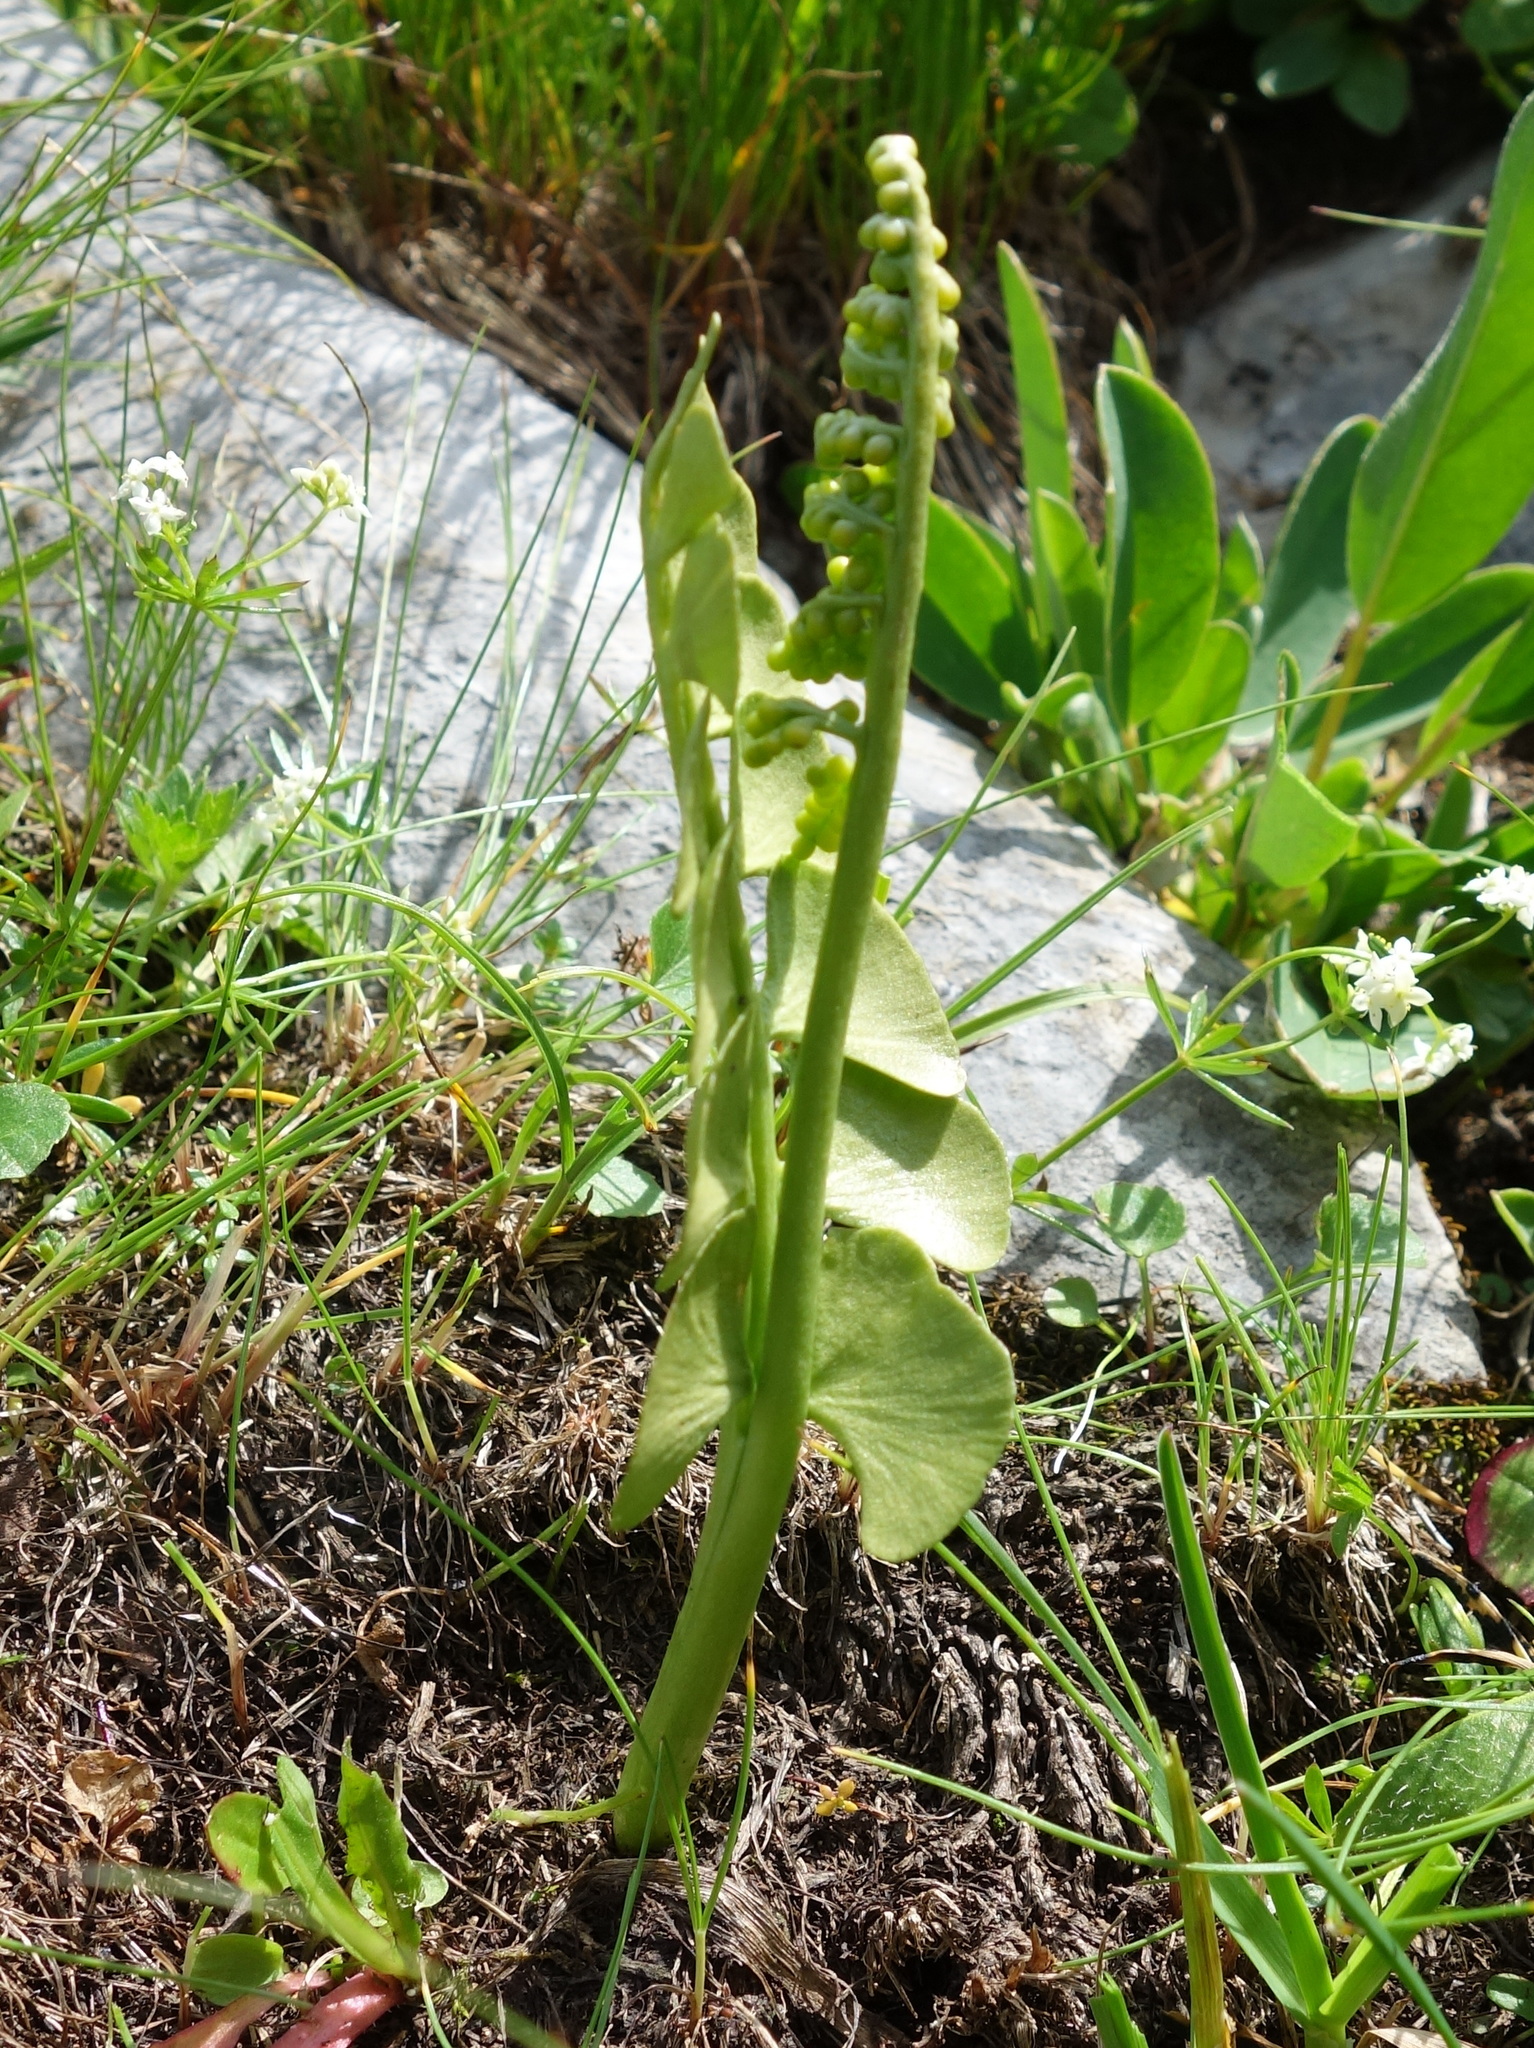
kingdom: Plantae
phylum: Tracheophyta
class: Polypodiopsida
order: Ophioglossales
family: Ophioglossaceae
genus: Botrychium
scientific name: Botrychium lunaria
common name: Moonwort
